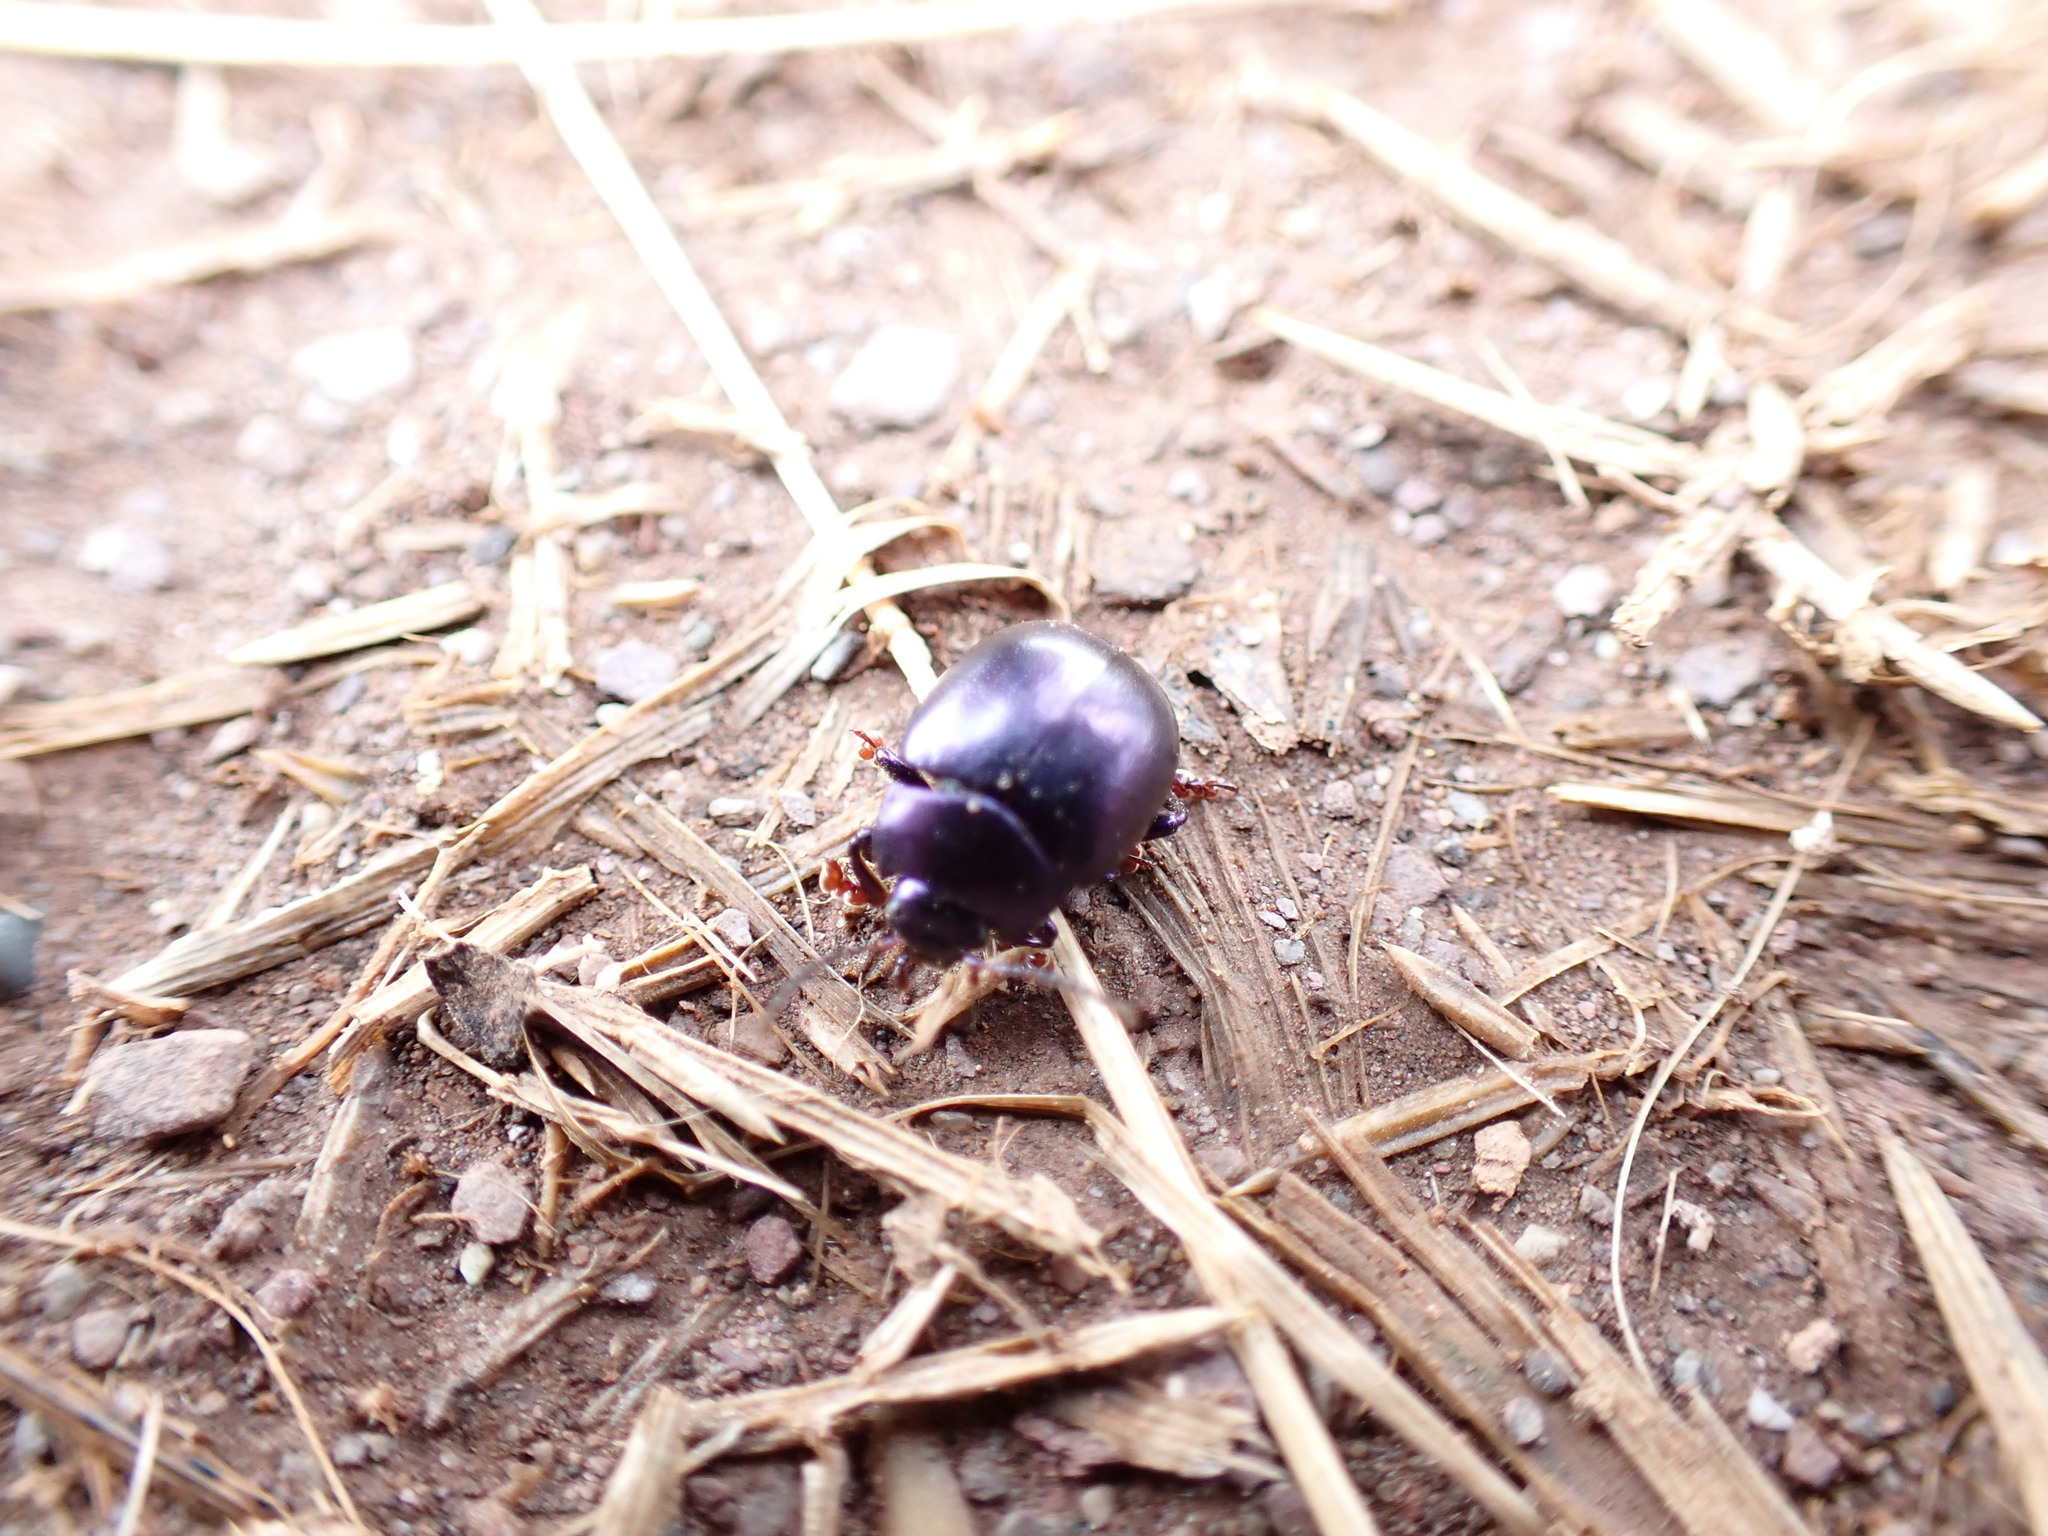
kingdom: Animalia
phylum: Arthropoda
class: Insecta
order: Coleoptera
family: Chrysomelidae
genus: Chrysolina
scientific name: Chrysolina sturmi
